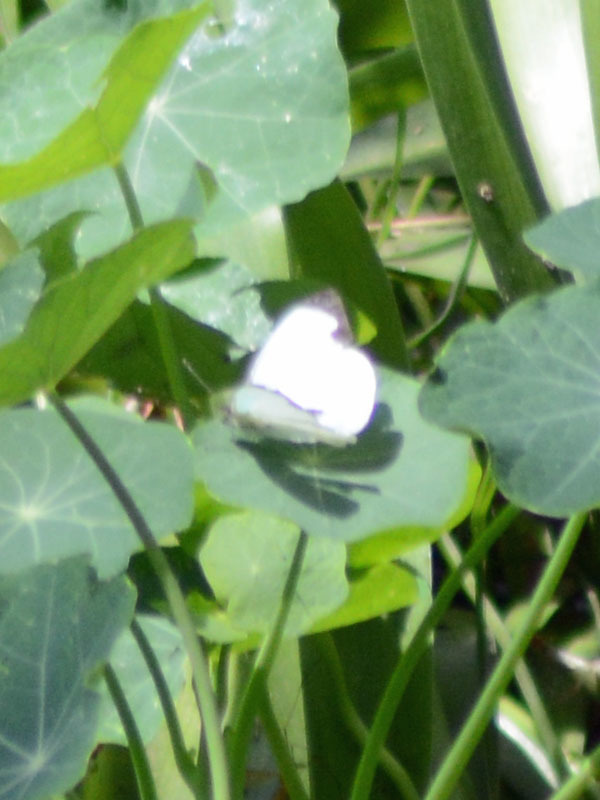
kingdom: Animalia
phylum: Arthropoda
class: Insecta
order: Lepidoptera
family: Pieridae
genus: Leptophobia
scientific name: Leptophobia aripa
